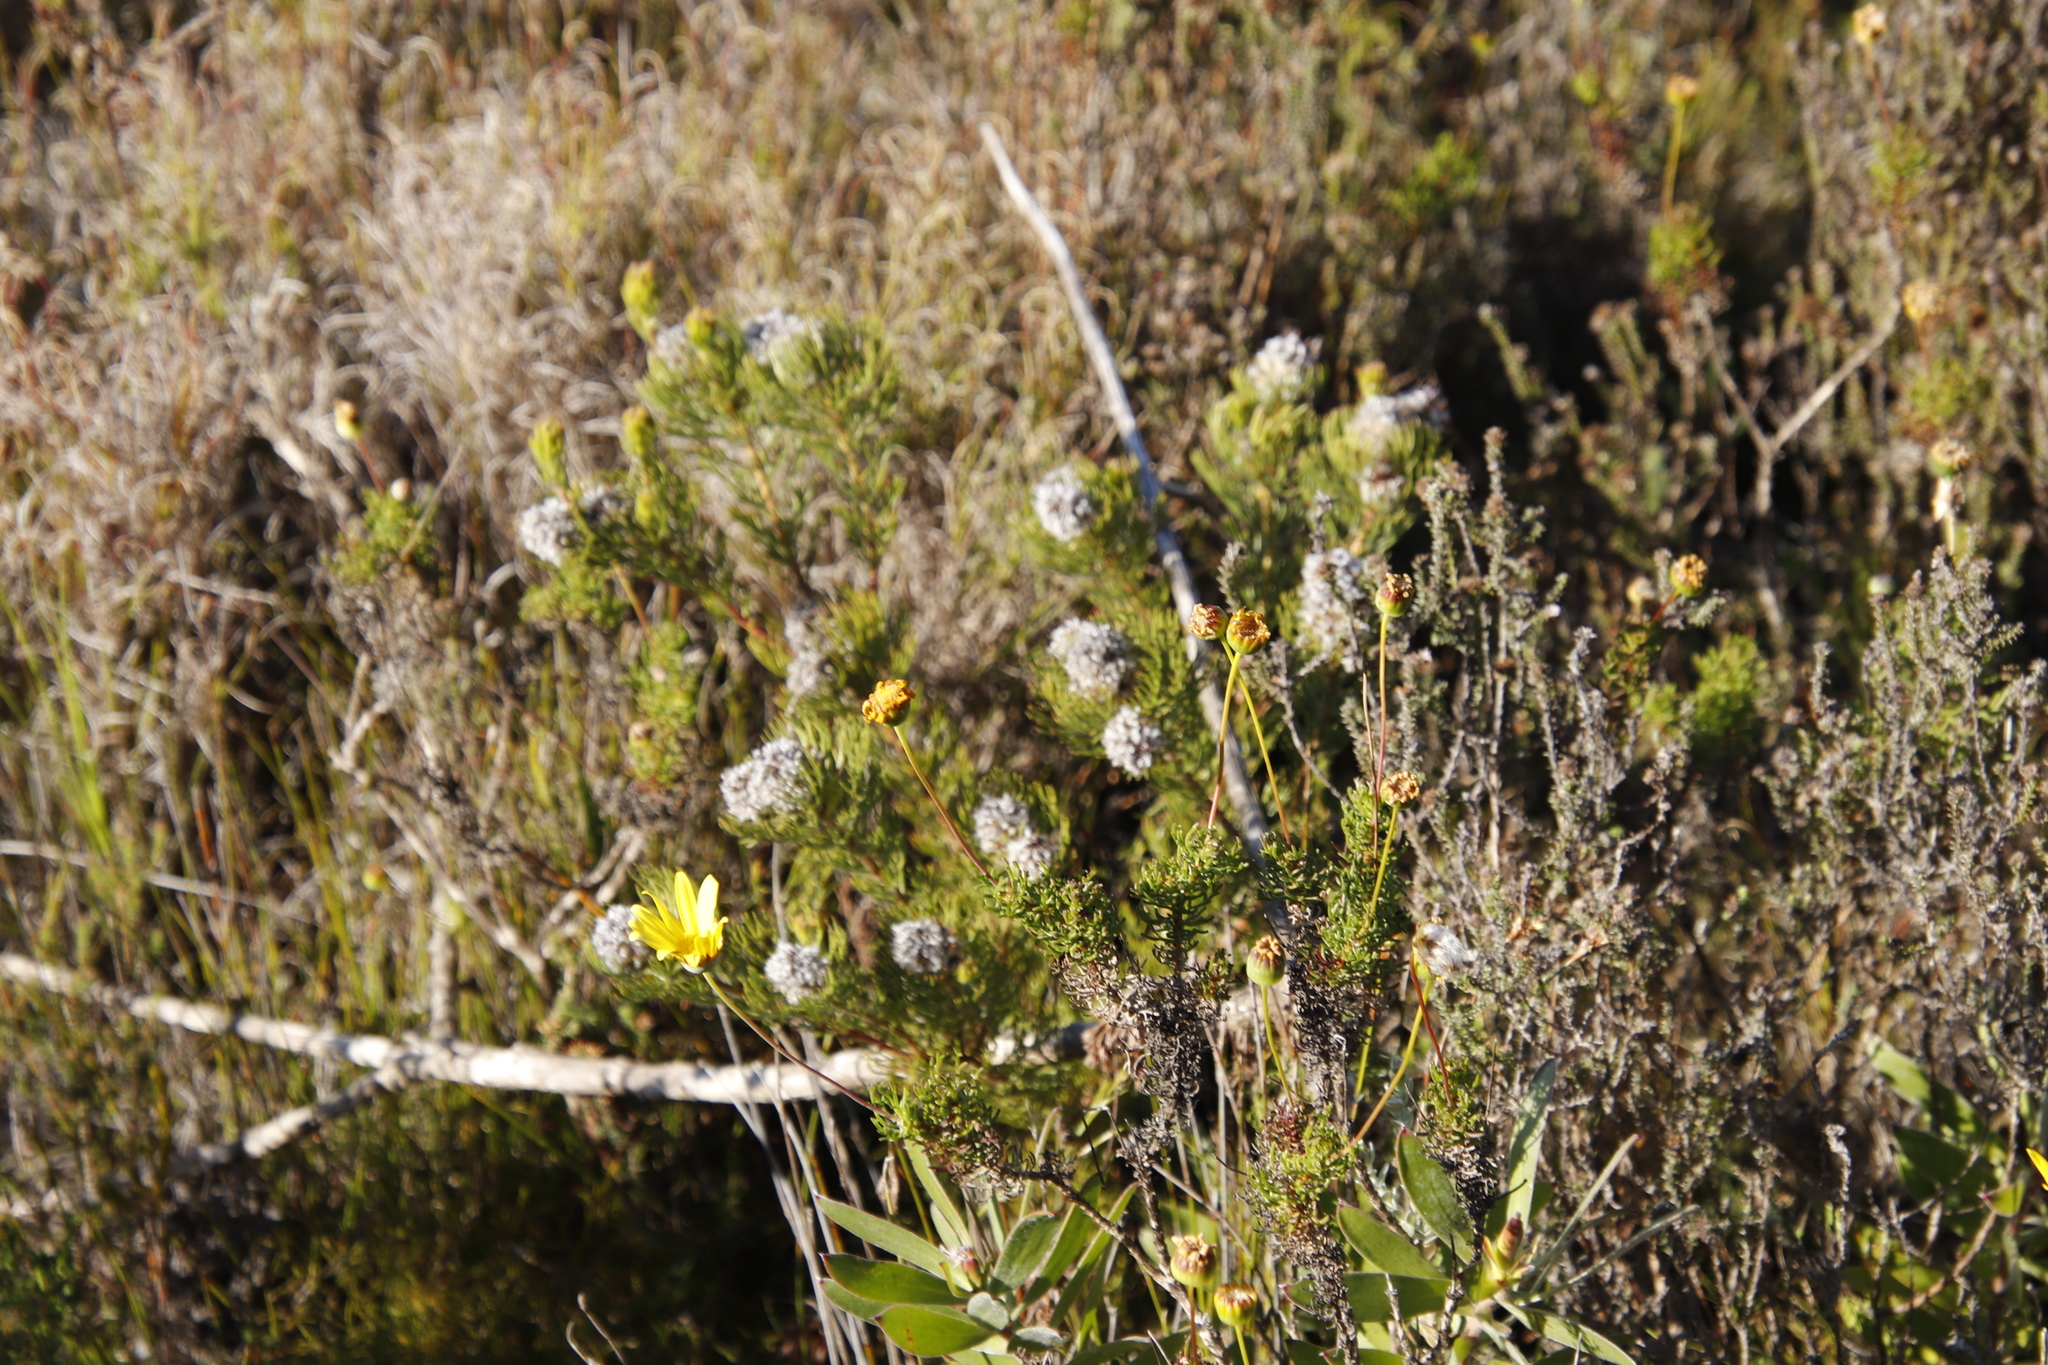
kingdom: Plantae
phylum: Tracheophyta
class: Magnoliopsida
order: Proteales
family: Proteaceae
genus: Serruria
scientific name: Serruria villosa
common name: Golden spiderhead
